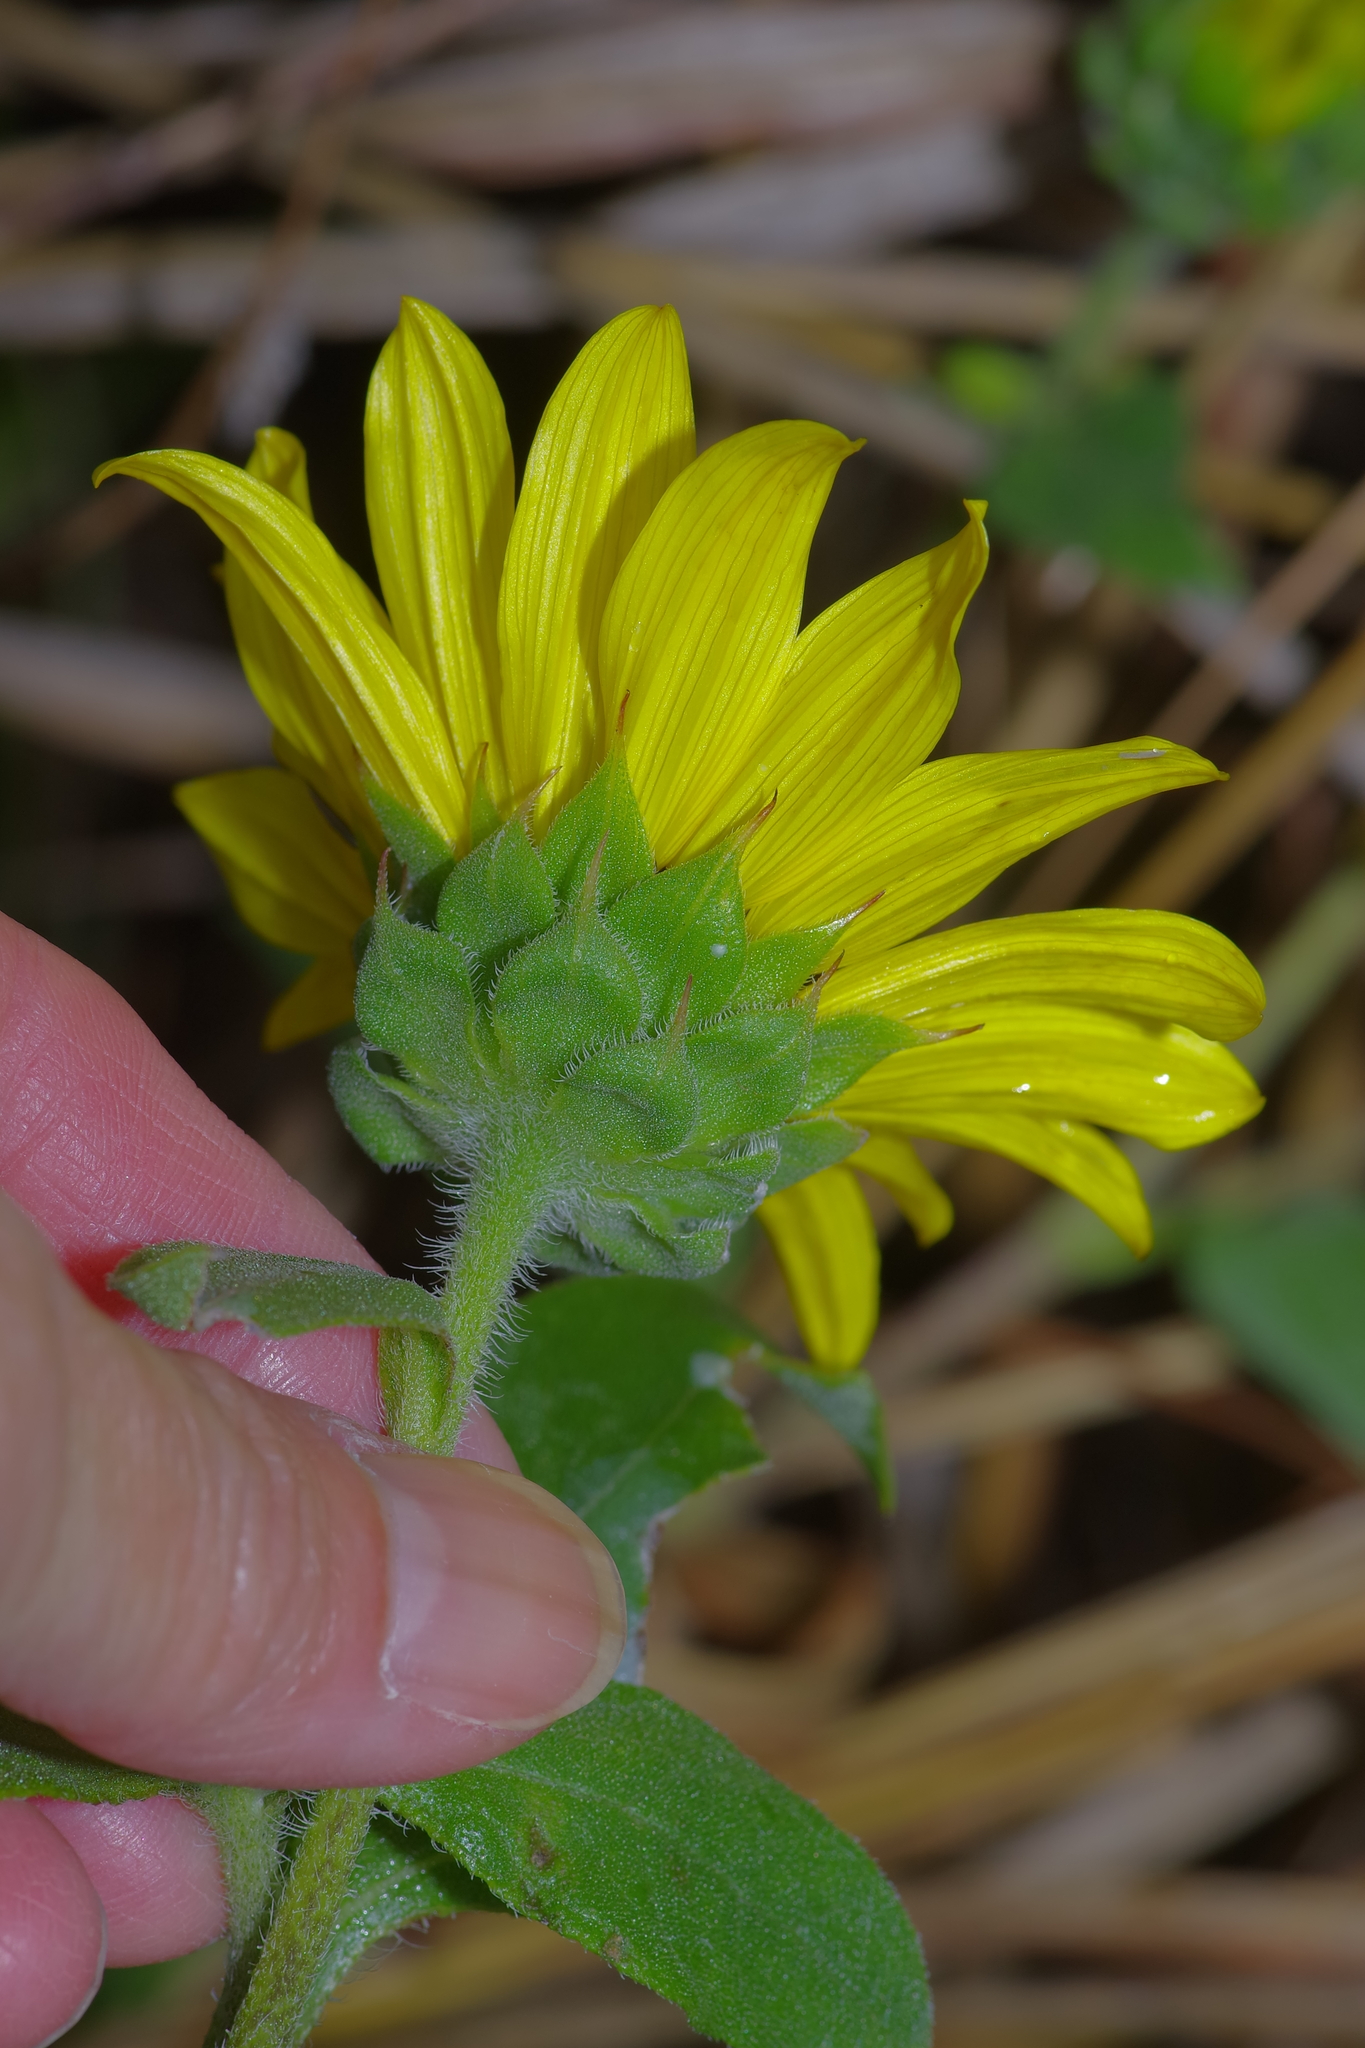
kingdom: Plantae
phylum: Tracheophyta
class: Magnoliopsida
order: Asterales
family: Asteraceae
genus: Helianthus
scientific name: Helianthus annuus
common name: Sunflower
